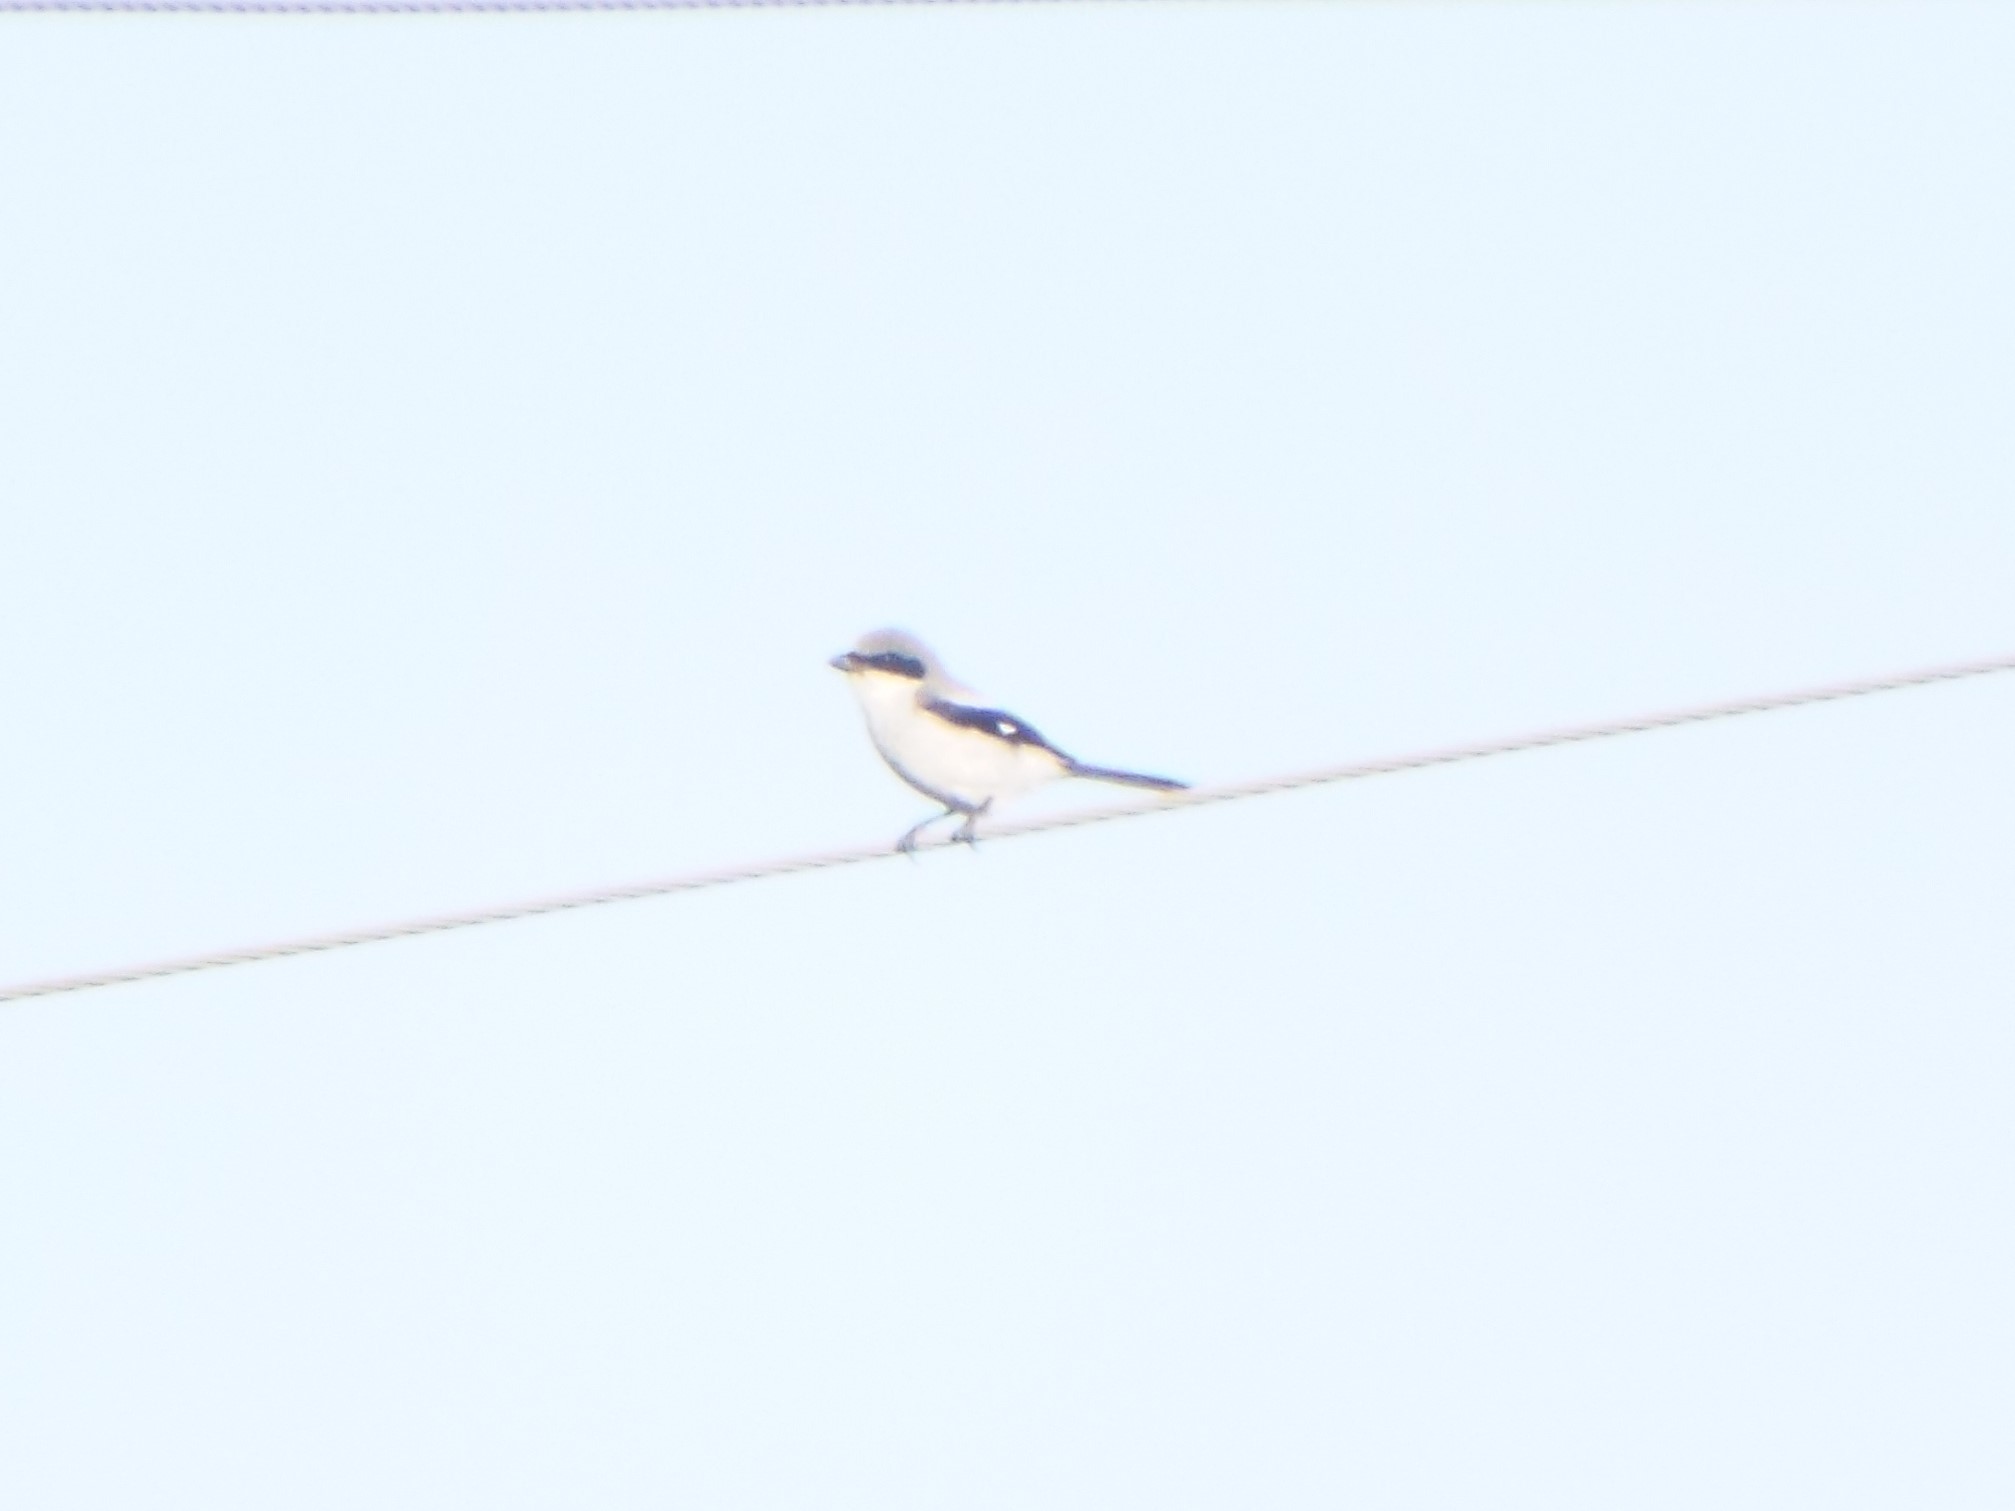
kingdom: Animalia
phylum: Chordata
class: Aves
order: Passeriformes
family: Laniidae
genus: Lanius
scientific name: Lanius ludovicianus
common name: Loggerhead shrike
